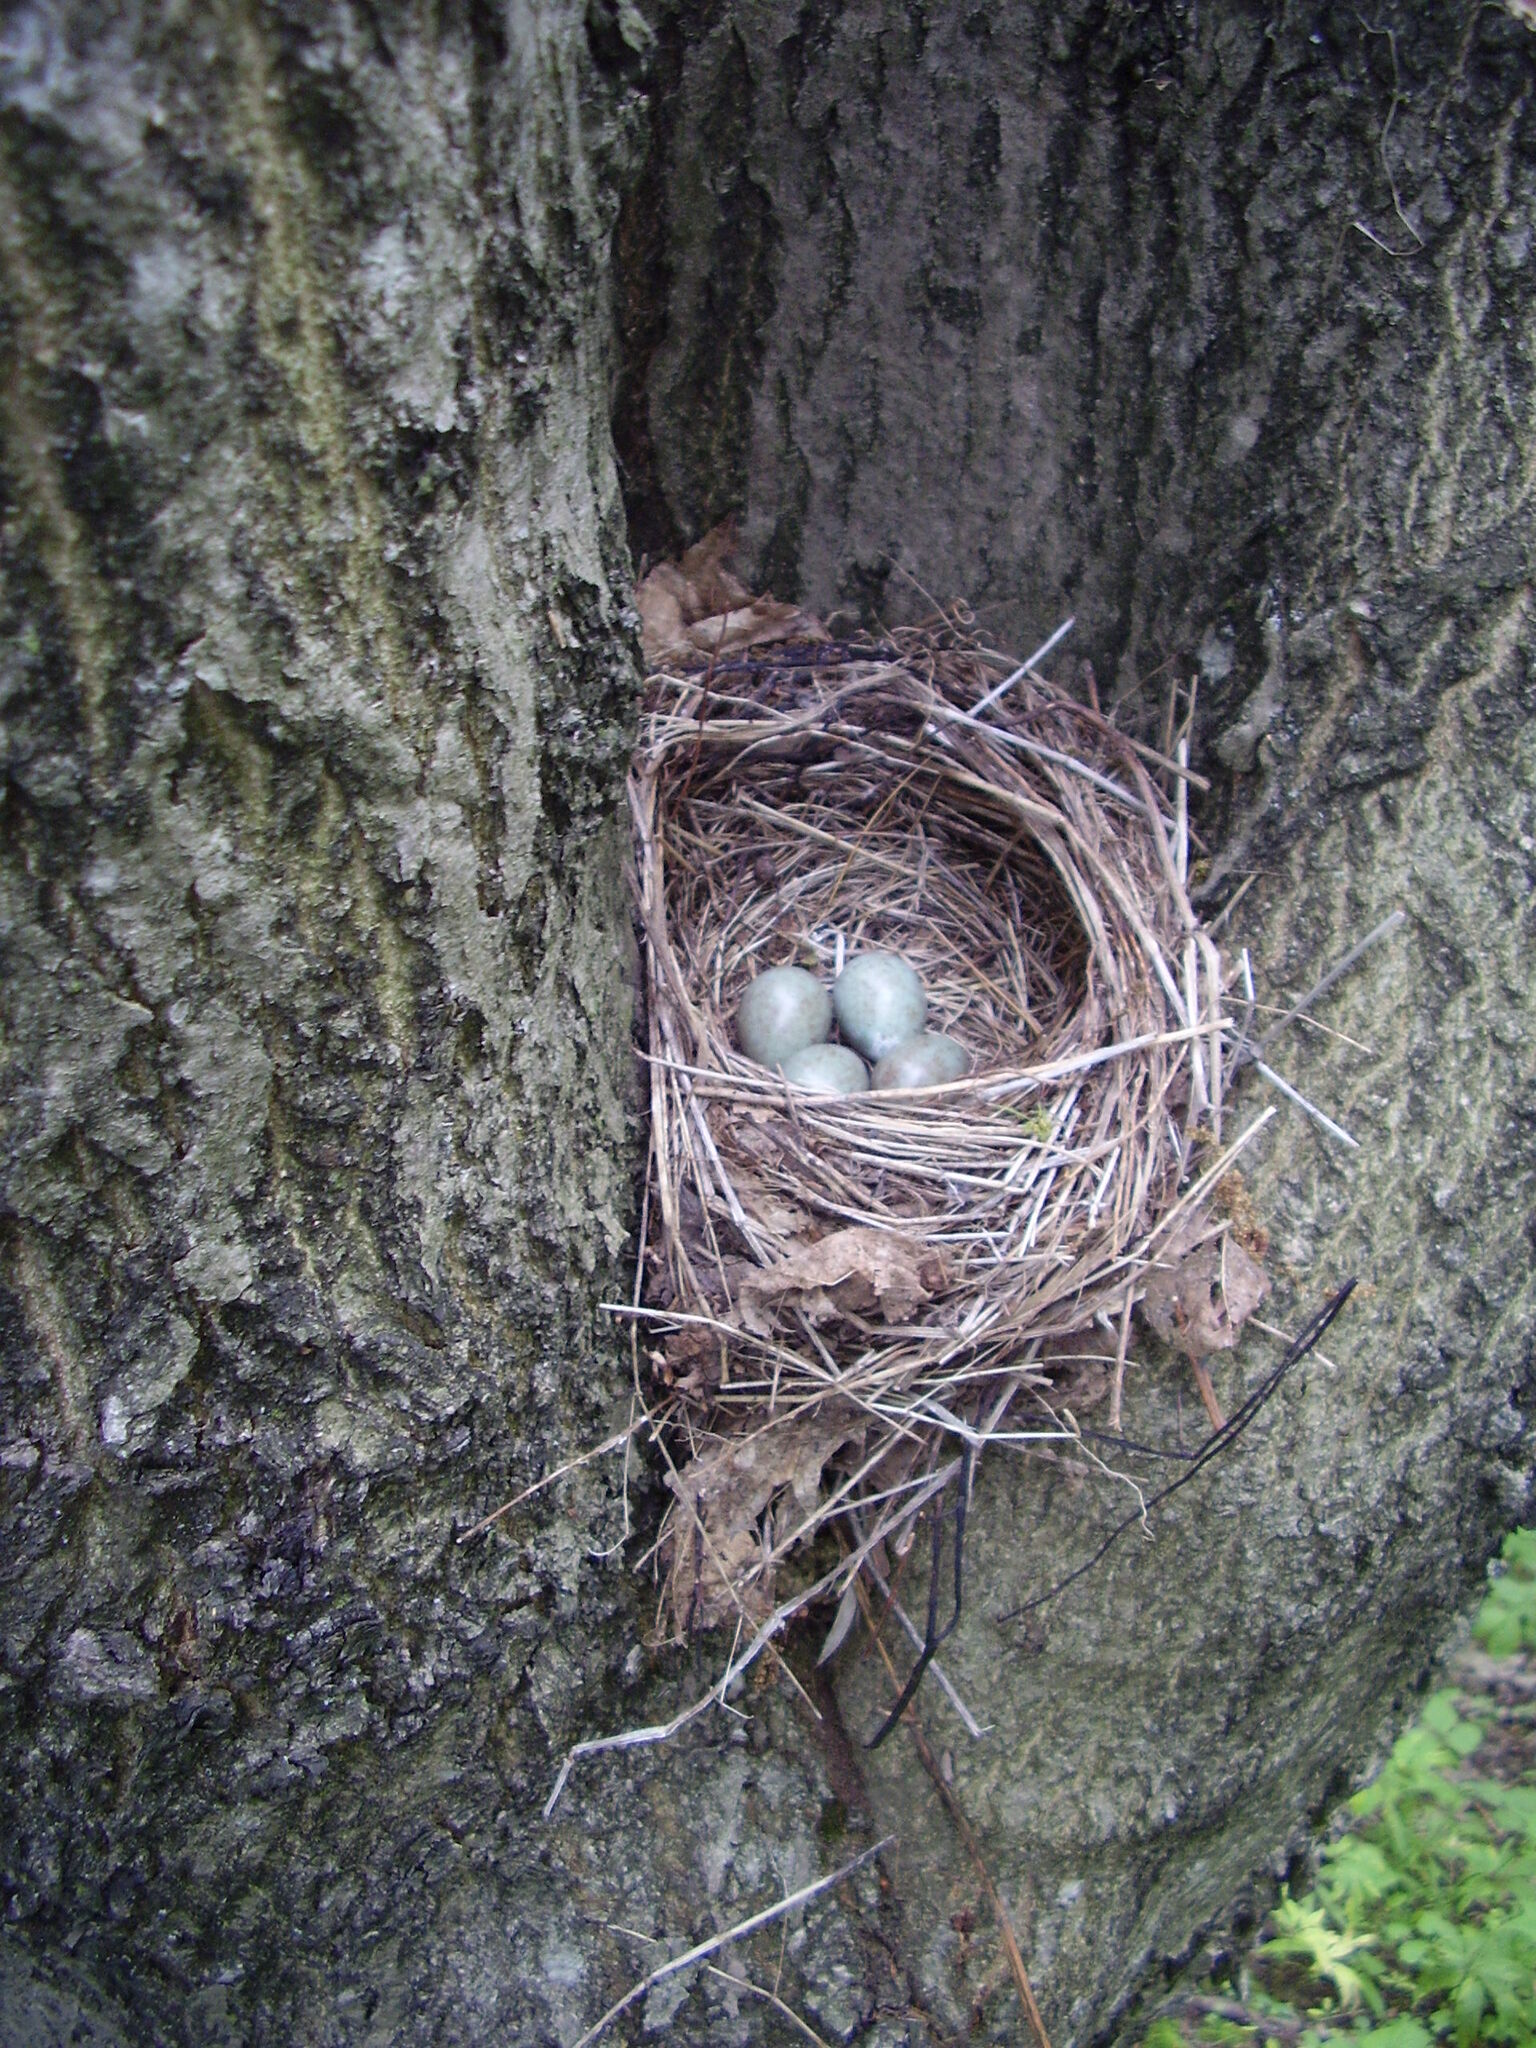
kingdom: Animalia
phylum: Chordata
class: Aves
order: Passeriformes
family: Turdidae
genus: Turdus
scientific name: Turdus merula
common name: Common blackbird
